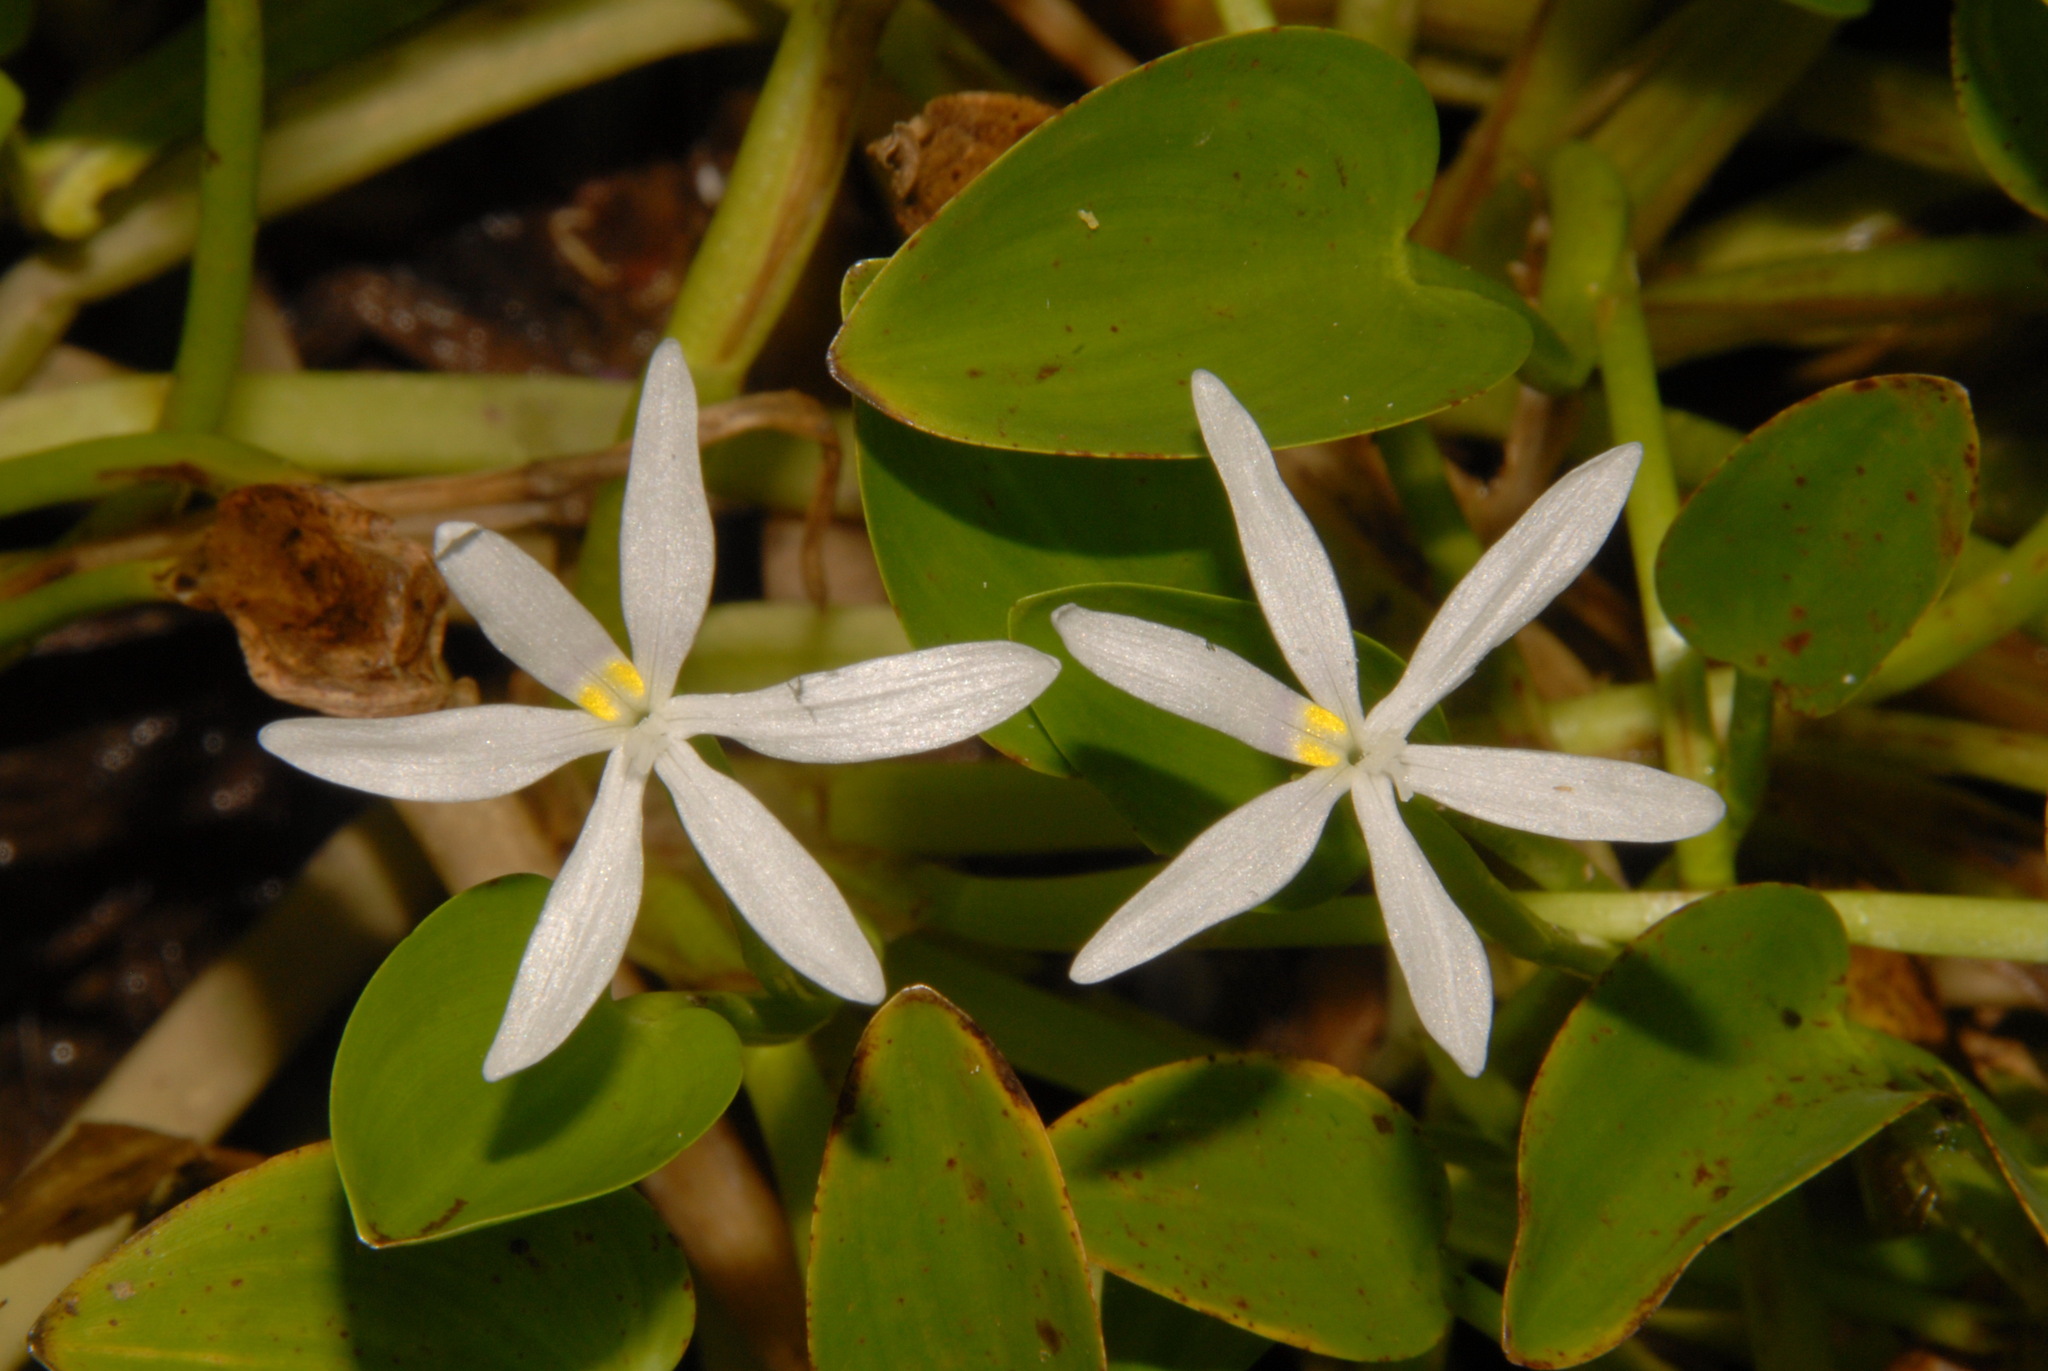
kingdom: Plantae
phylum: Tracheophyta
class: Liliopsida
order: Commelinales
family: Pontederiaceae
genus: Heteranthera
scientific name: Heteranthera limosa
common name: Blue mud-plantain
